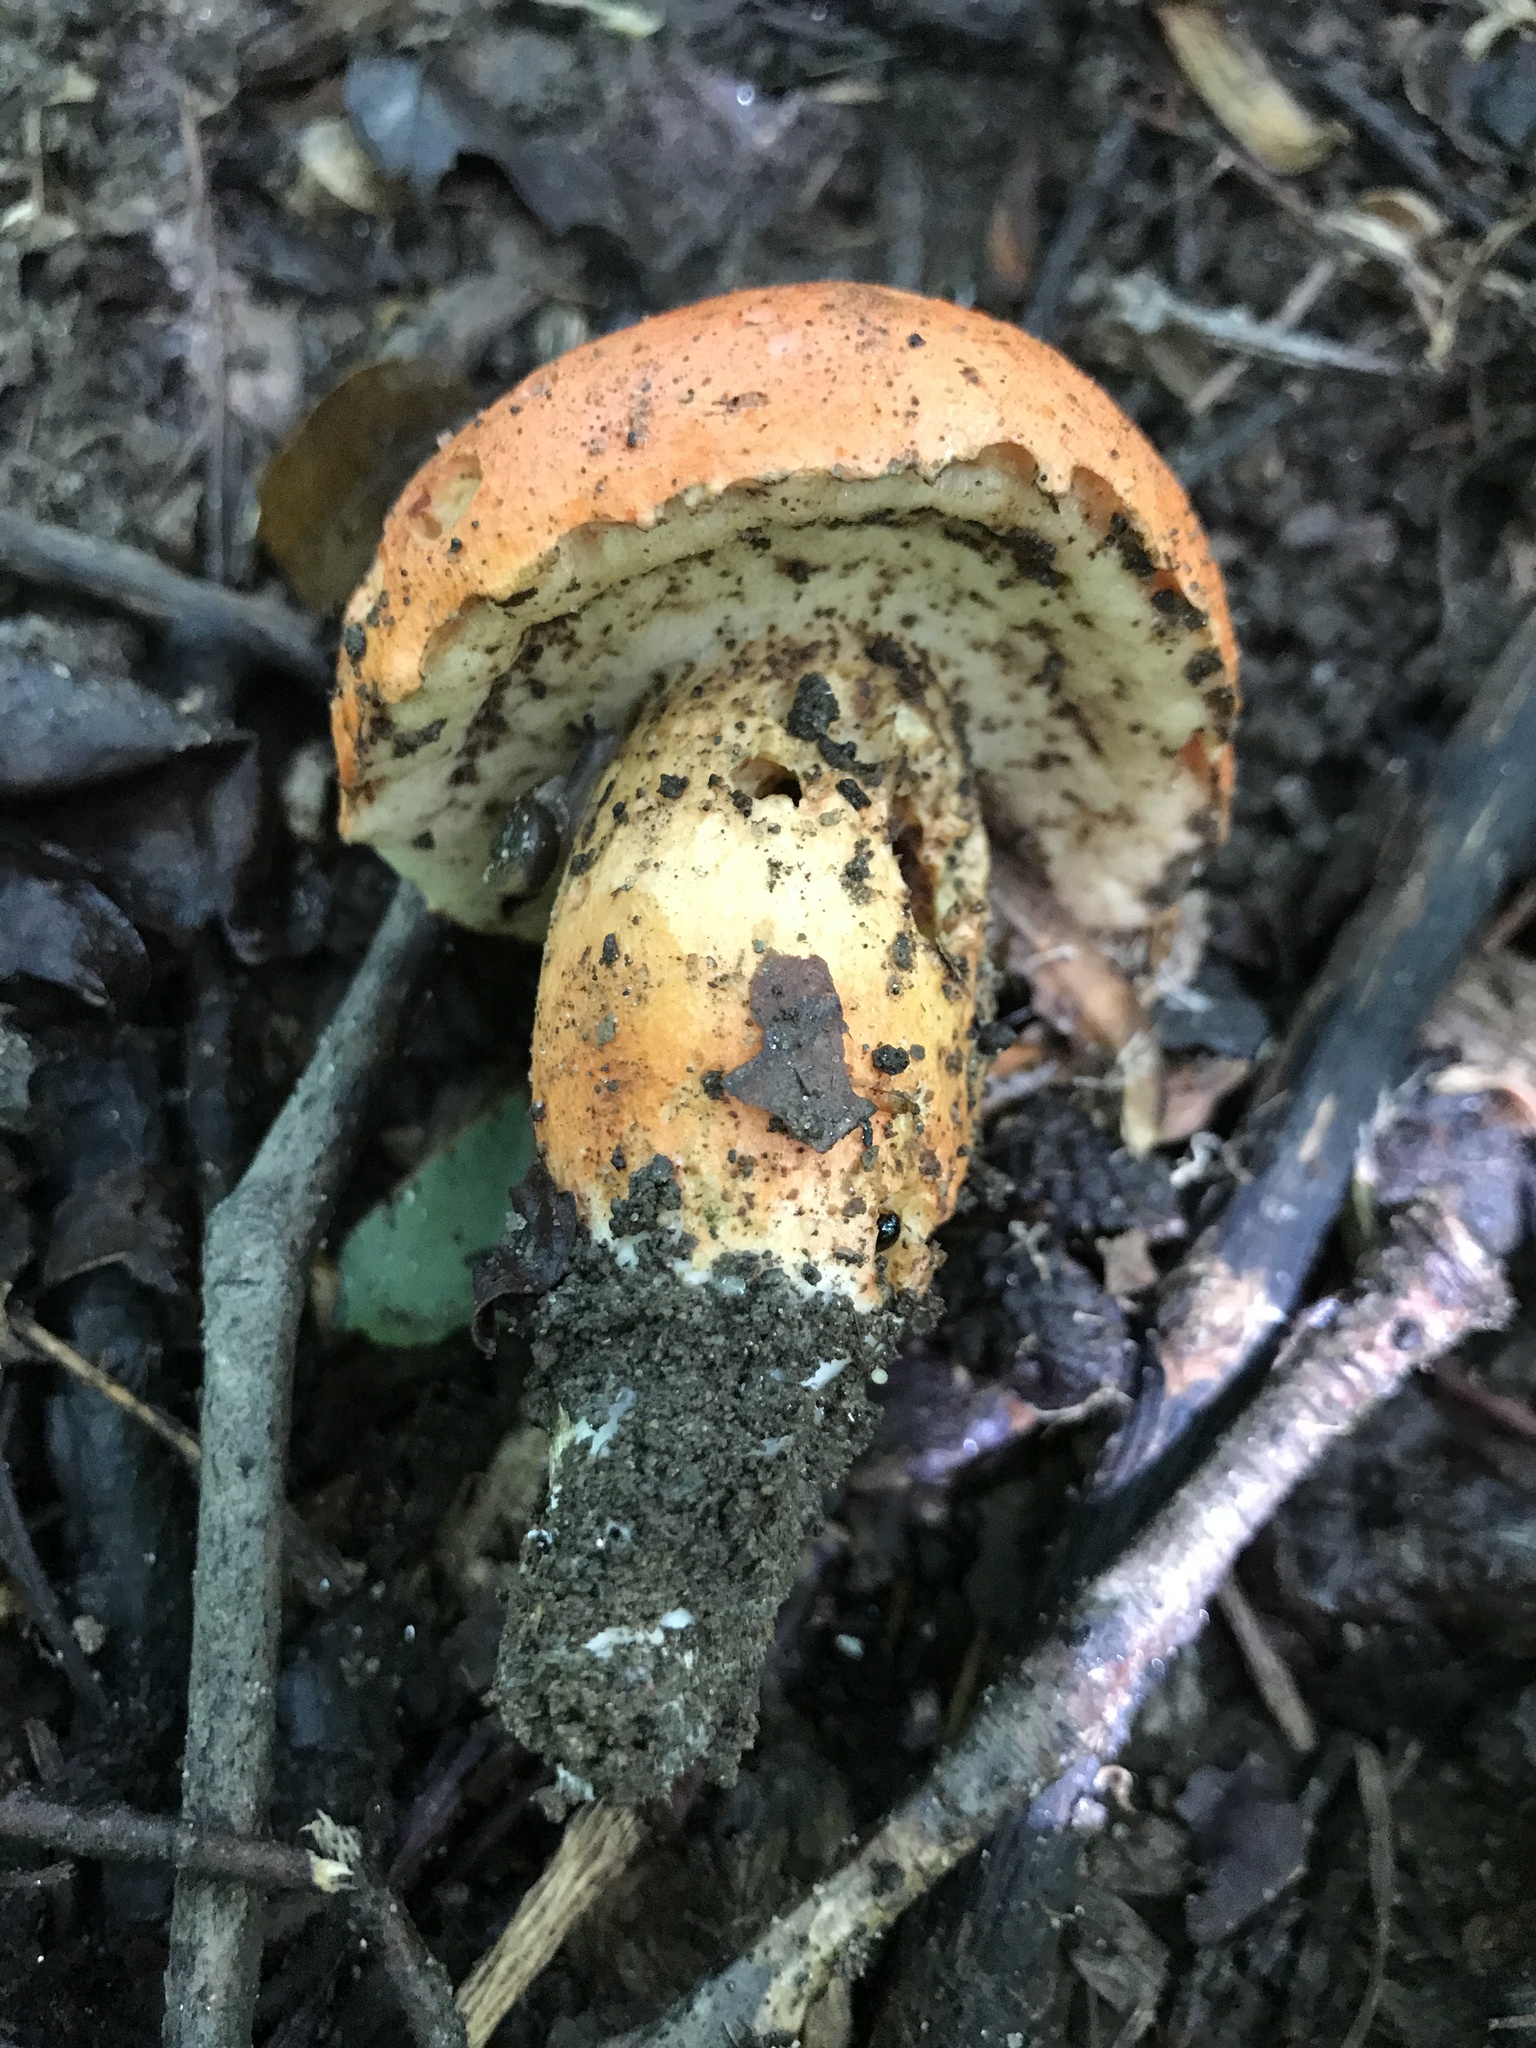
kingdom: Fungi
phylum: Basidiomycota
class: Agaricomycetes
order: Boletales
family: Boletaceae
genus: Tylopilus
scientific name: Tylopilus balloui
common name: Burnt-orange bolete
